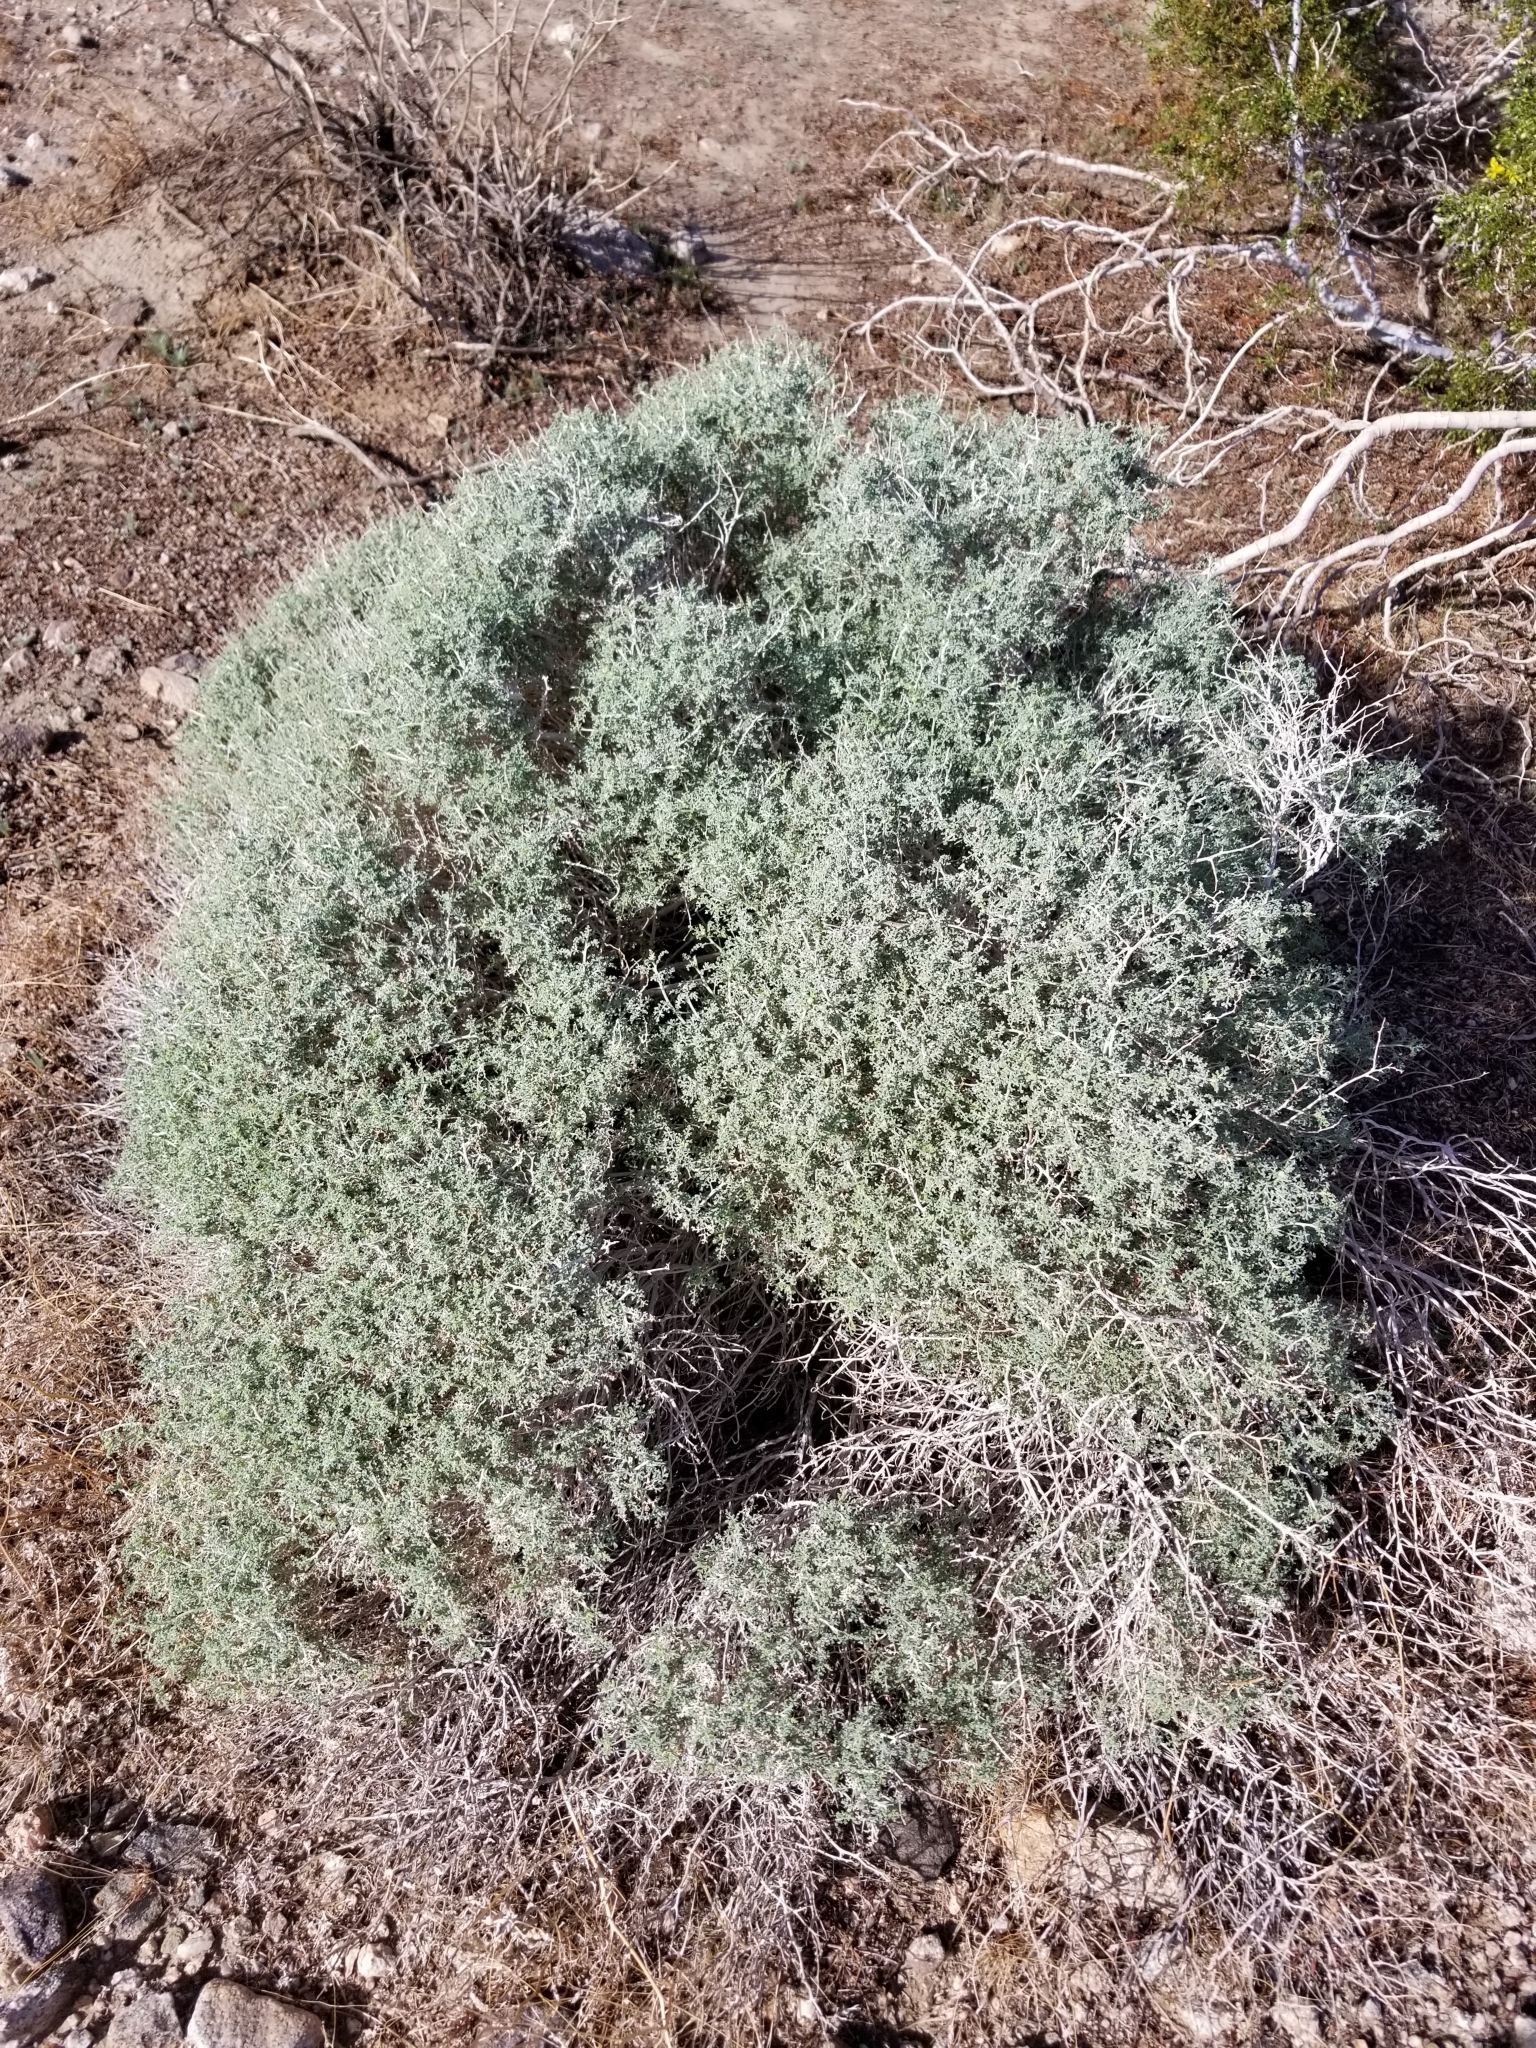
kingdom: Plantae
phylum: Tracheophyta
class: Magnoliopsida
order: Asterales
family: Asteraceae
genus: Ambrosia
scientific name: Ambrosia dumosa
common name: Bur-sage
